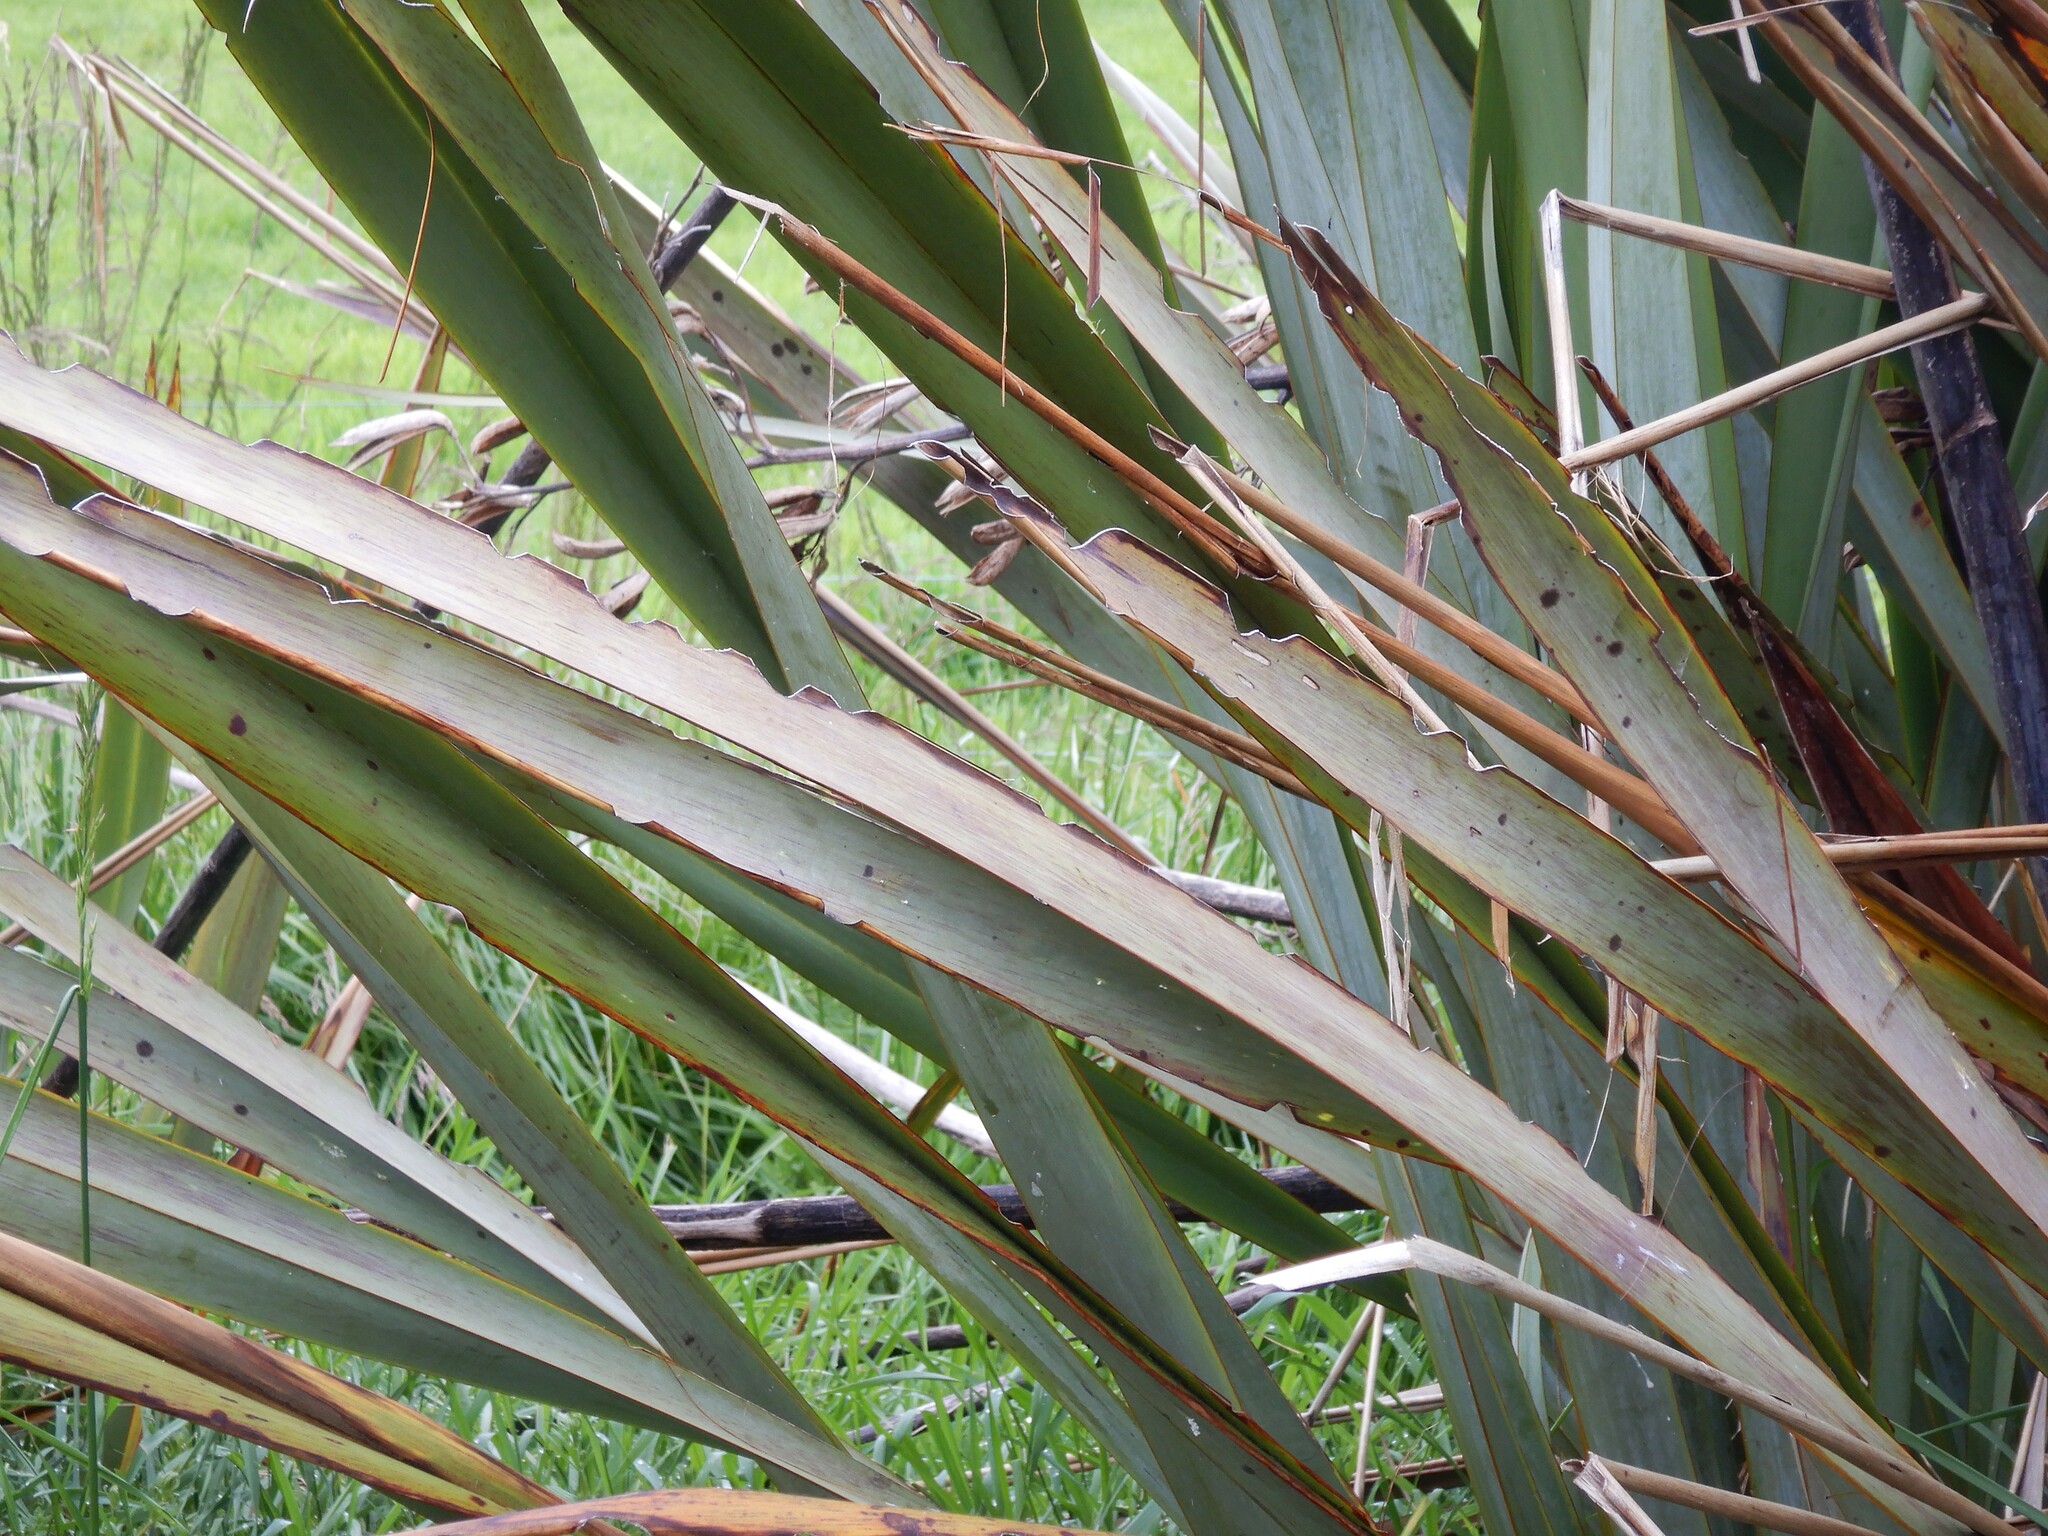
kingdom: Animalia
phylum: Arthropoda
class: Insecta
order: Lepidoptera
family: Noctuidae
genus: Ichneutica
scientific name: Ichneutica
